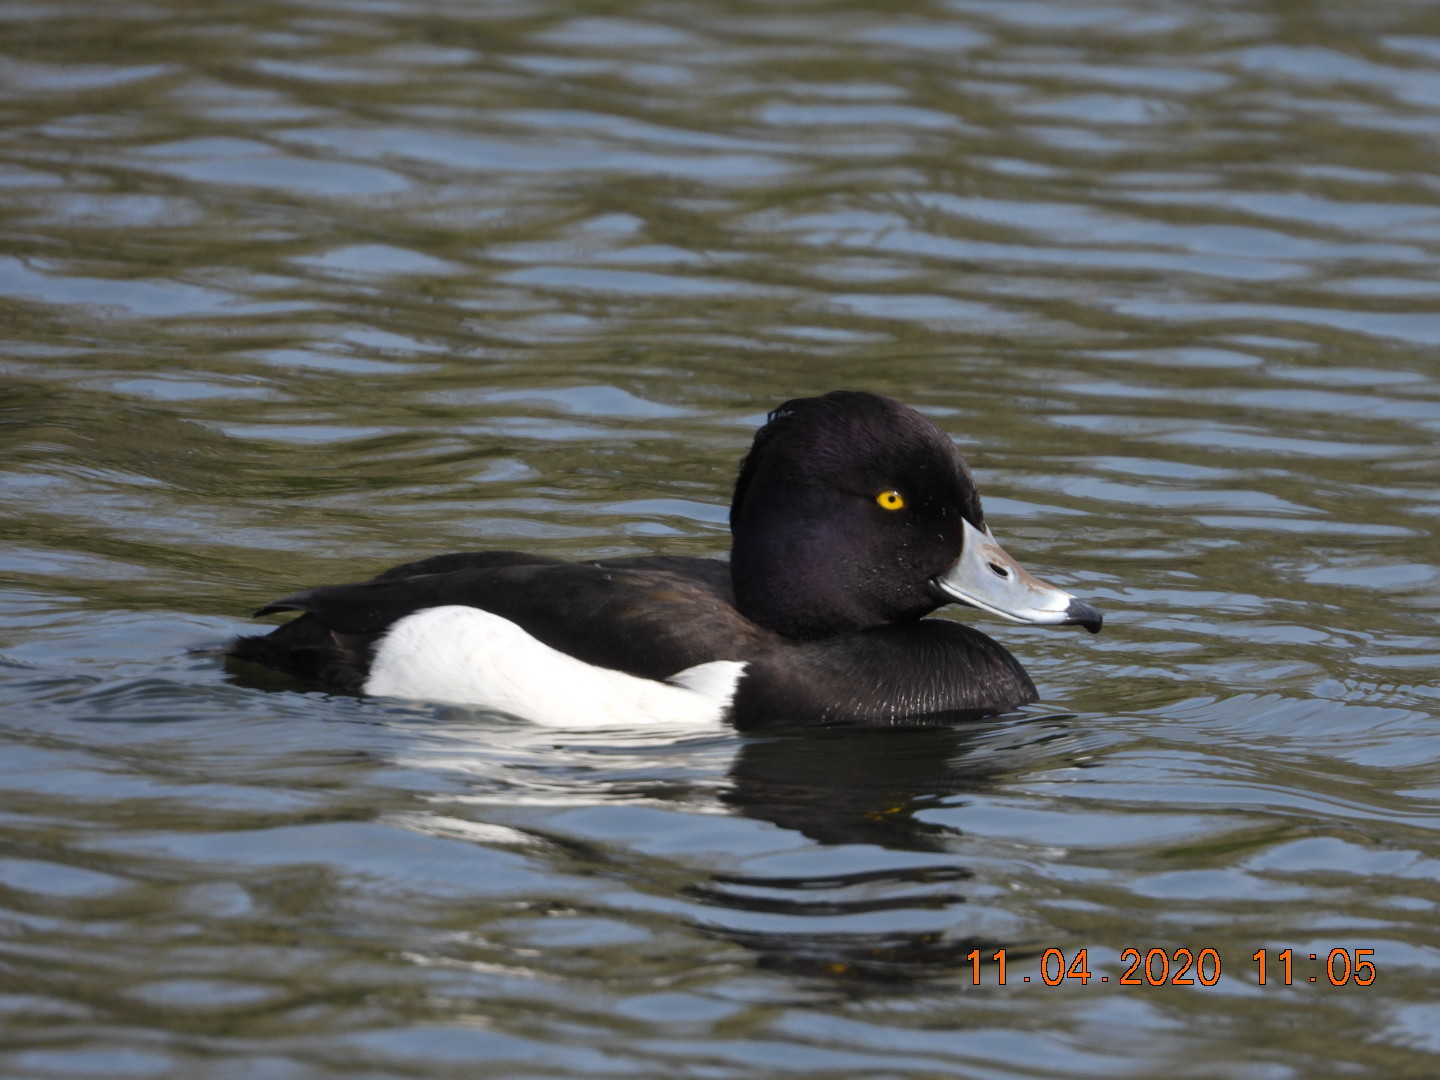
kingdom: Animalia
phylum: Chordata
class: Aves
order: Anseriformes
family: Anatidae
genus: Aythya
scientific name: Aythya fuligula
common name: Tufted duck
